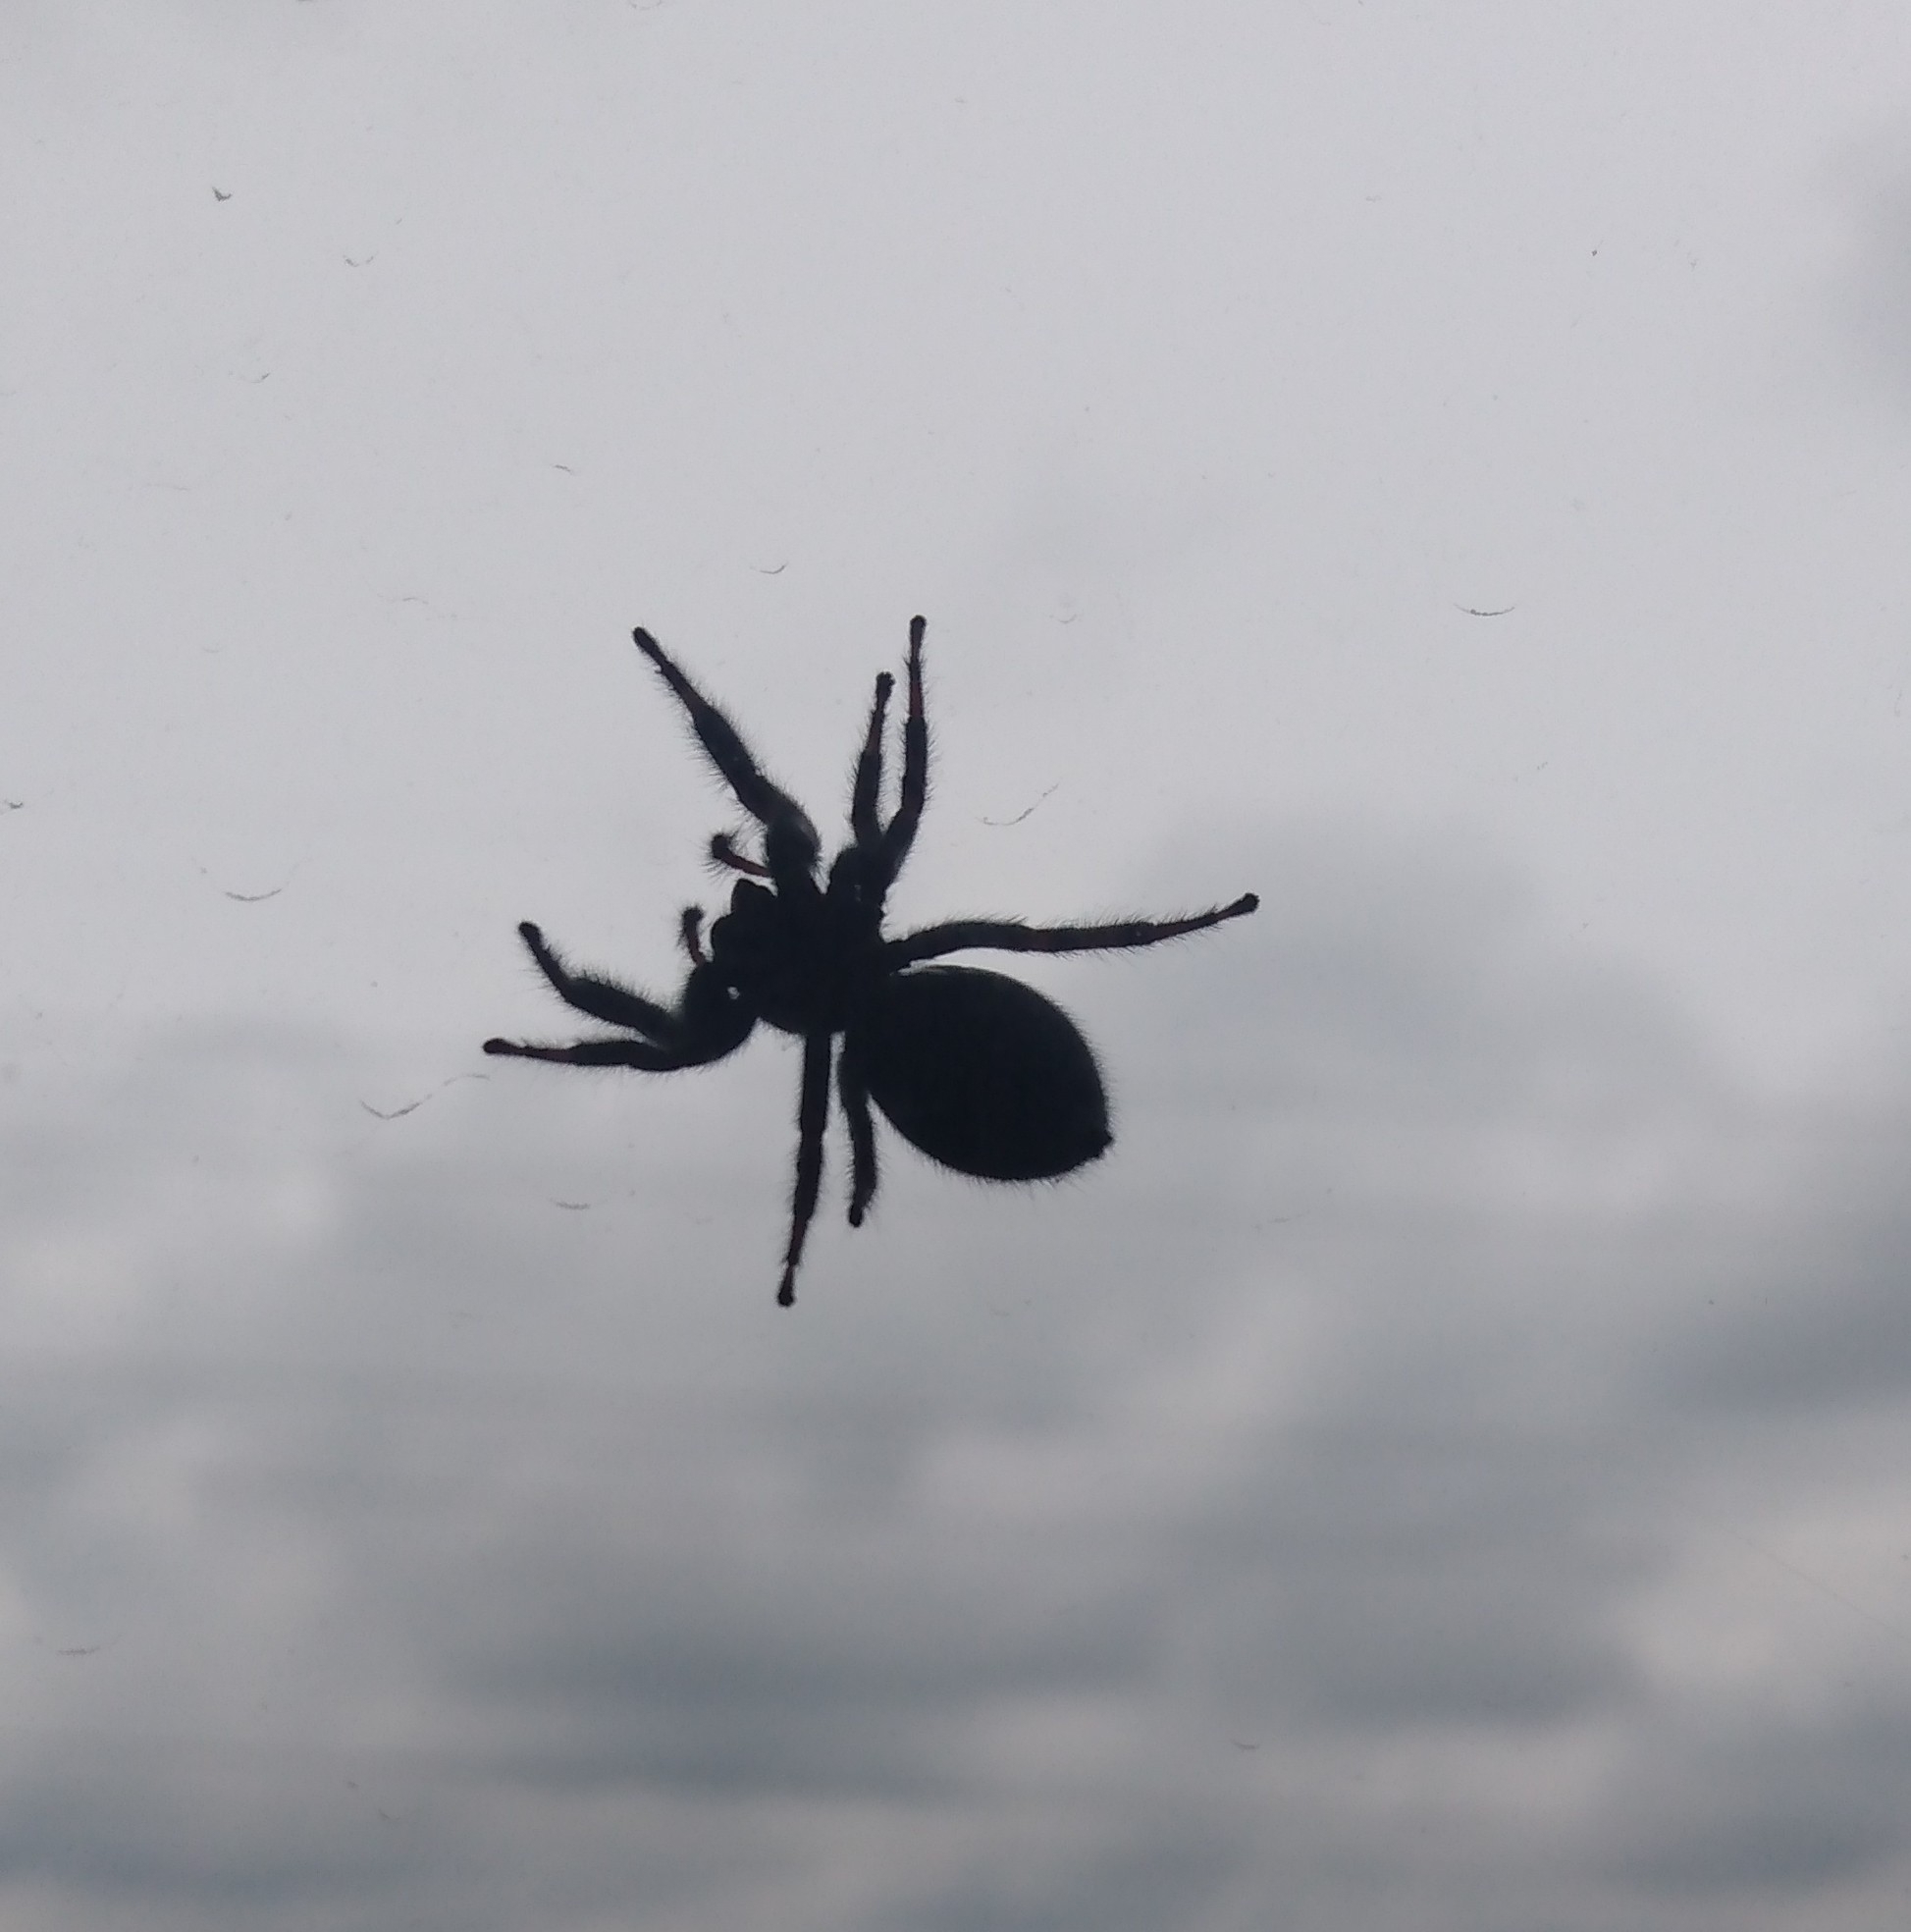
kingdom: Animalia
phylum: Arthropoda
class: Arachnida
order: Araneae
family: Salticidae
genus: Phidippus
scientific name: Phidippus audax
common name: Bold jumper
